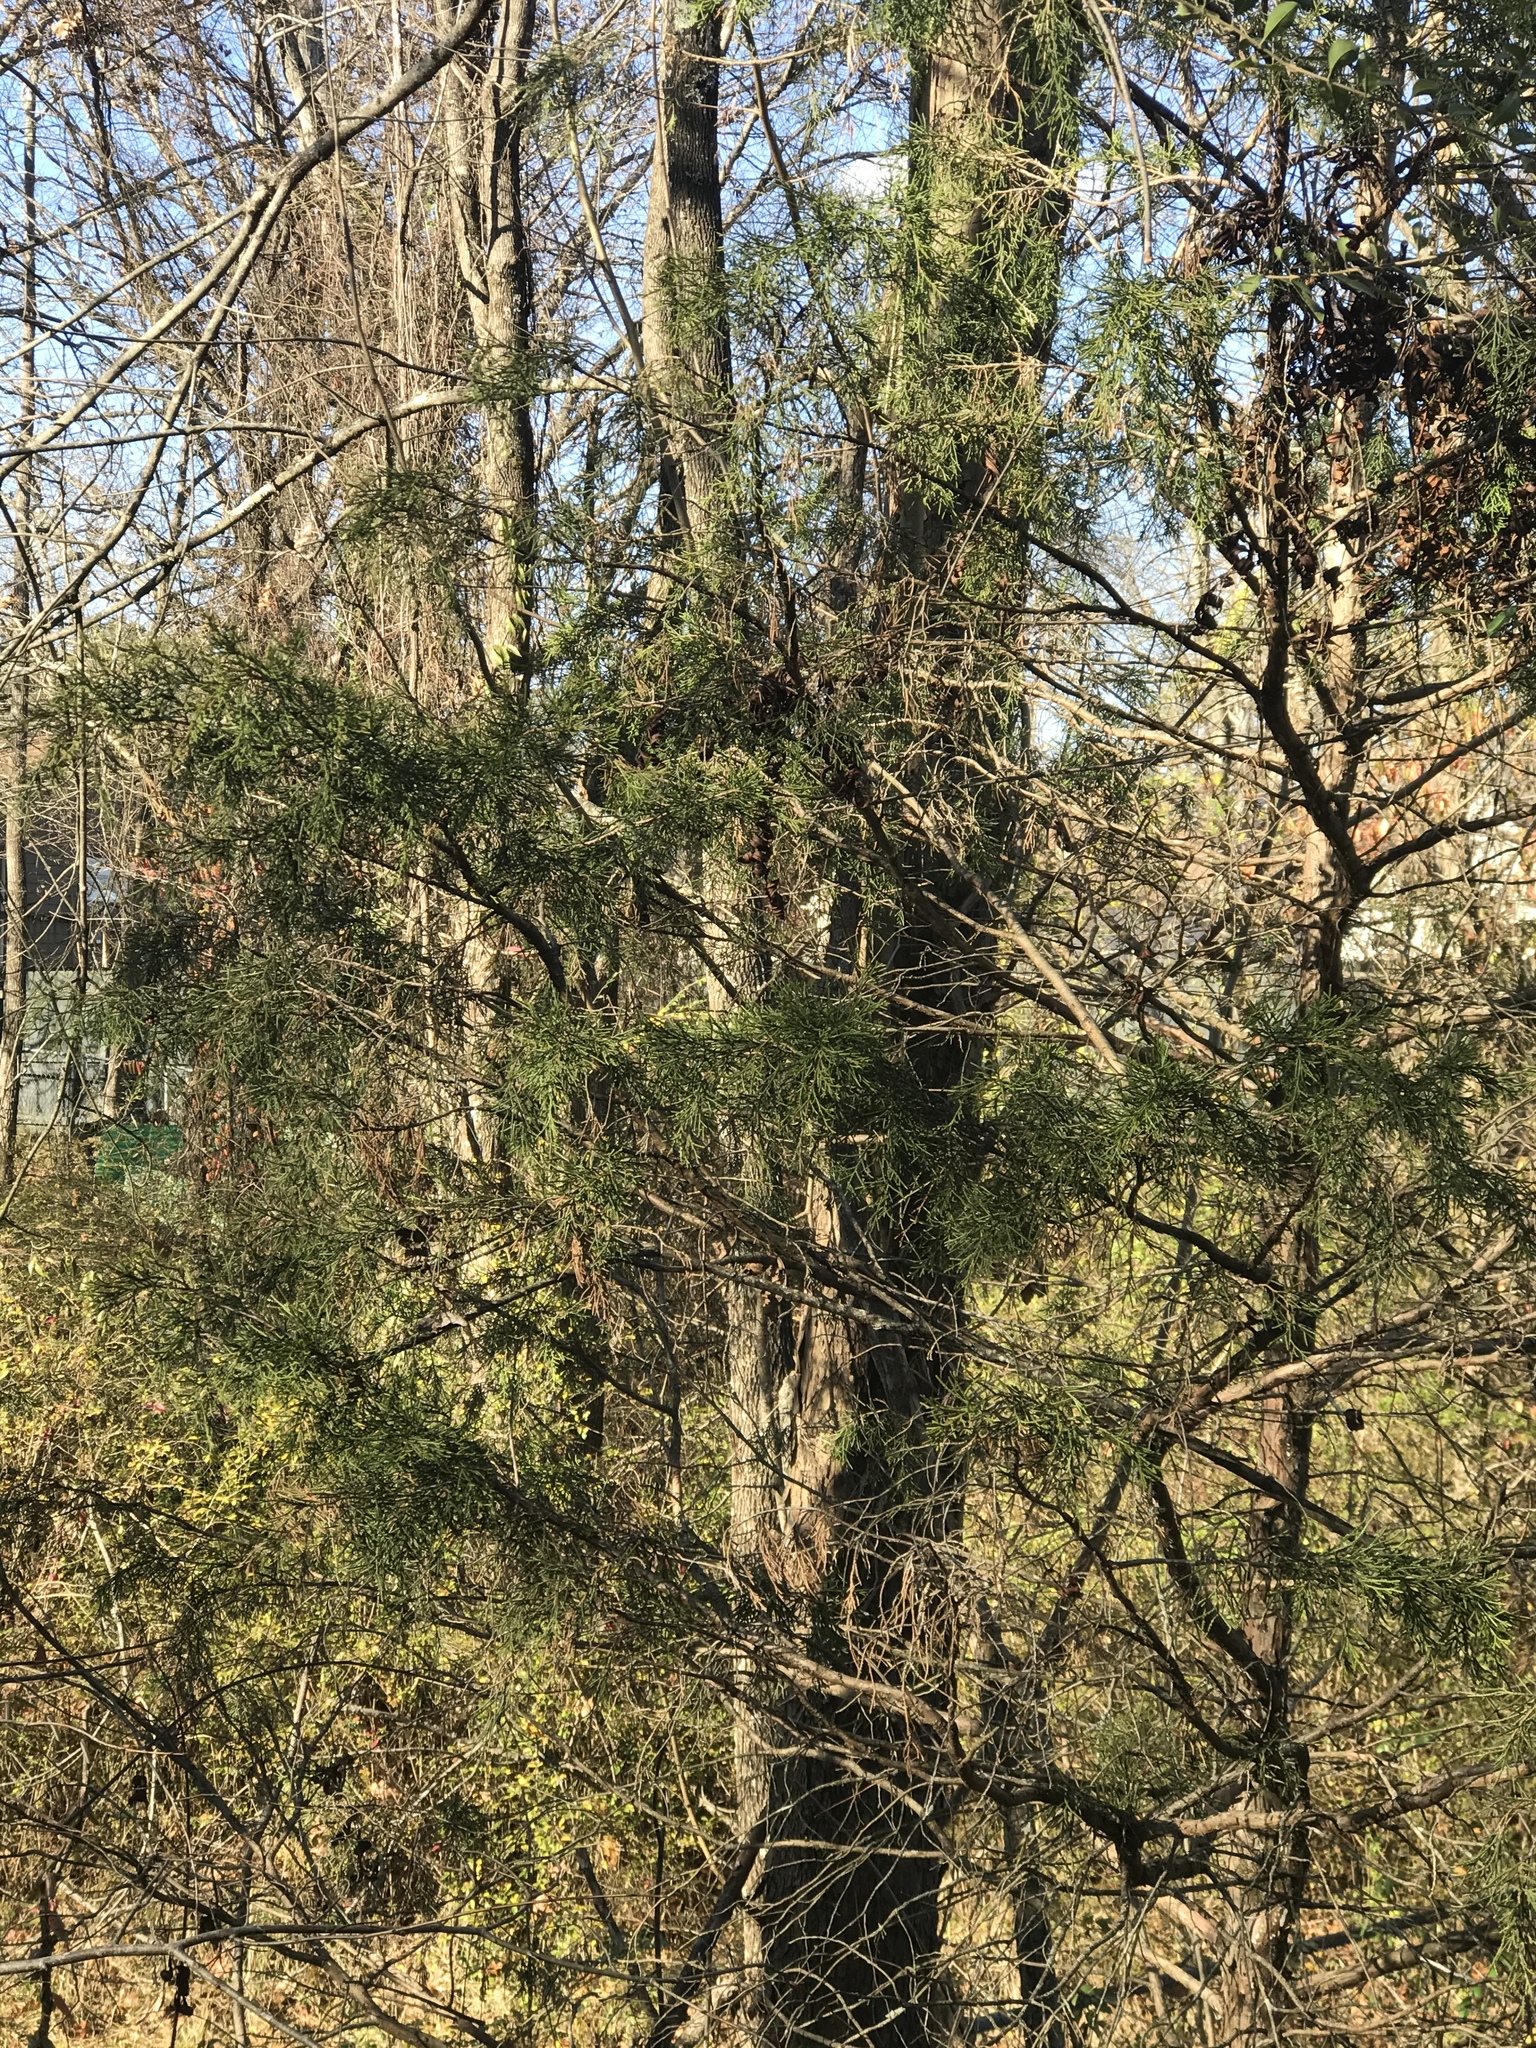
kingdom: Plantae
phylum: Tracheophyta
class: Pinopsida
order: Pinales
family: Cupressaceae
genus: Juniperus
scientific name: Juniperus virginiana
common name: Red juniper
